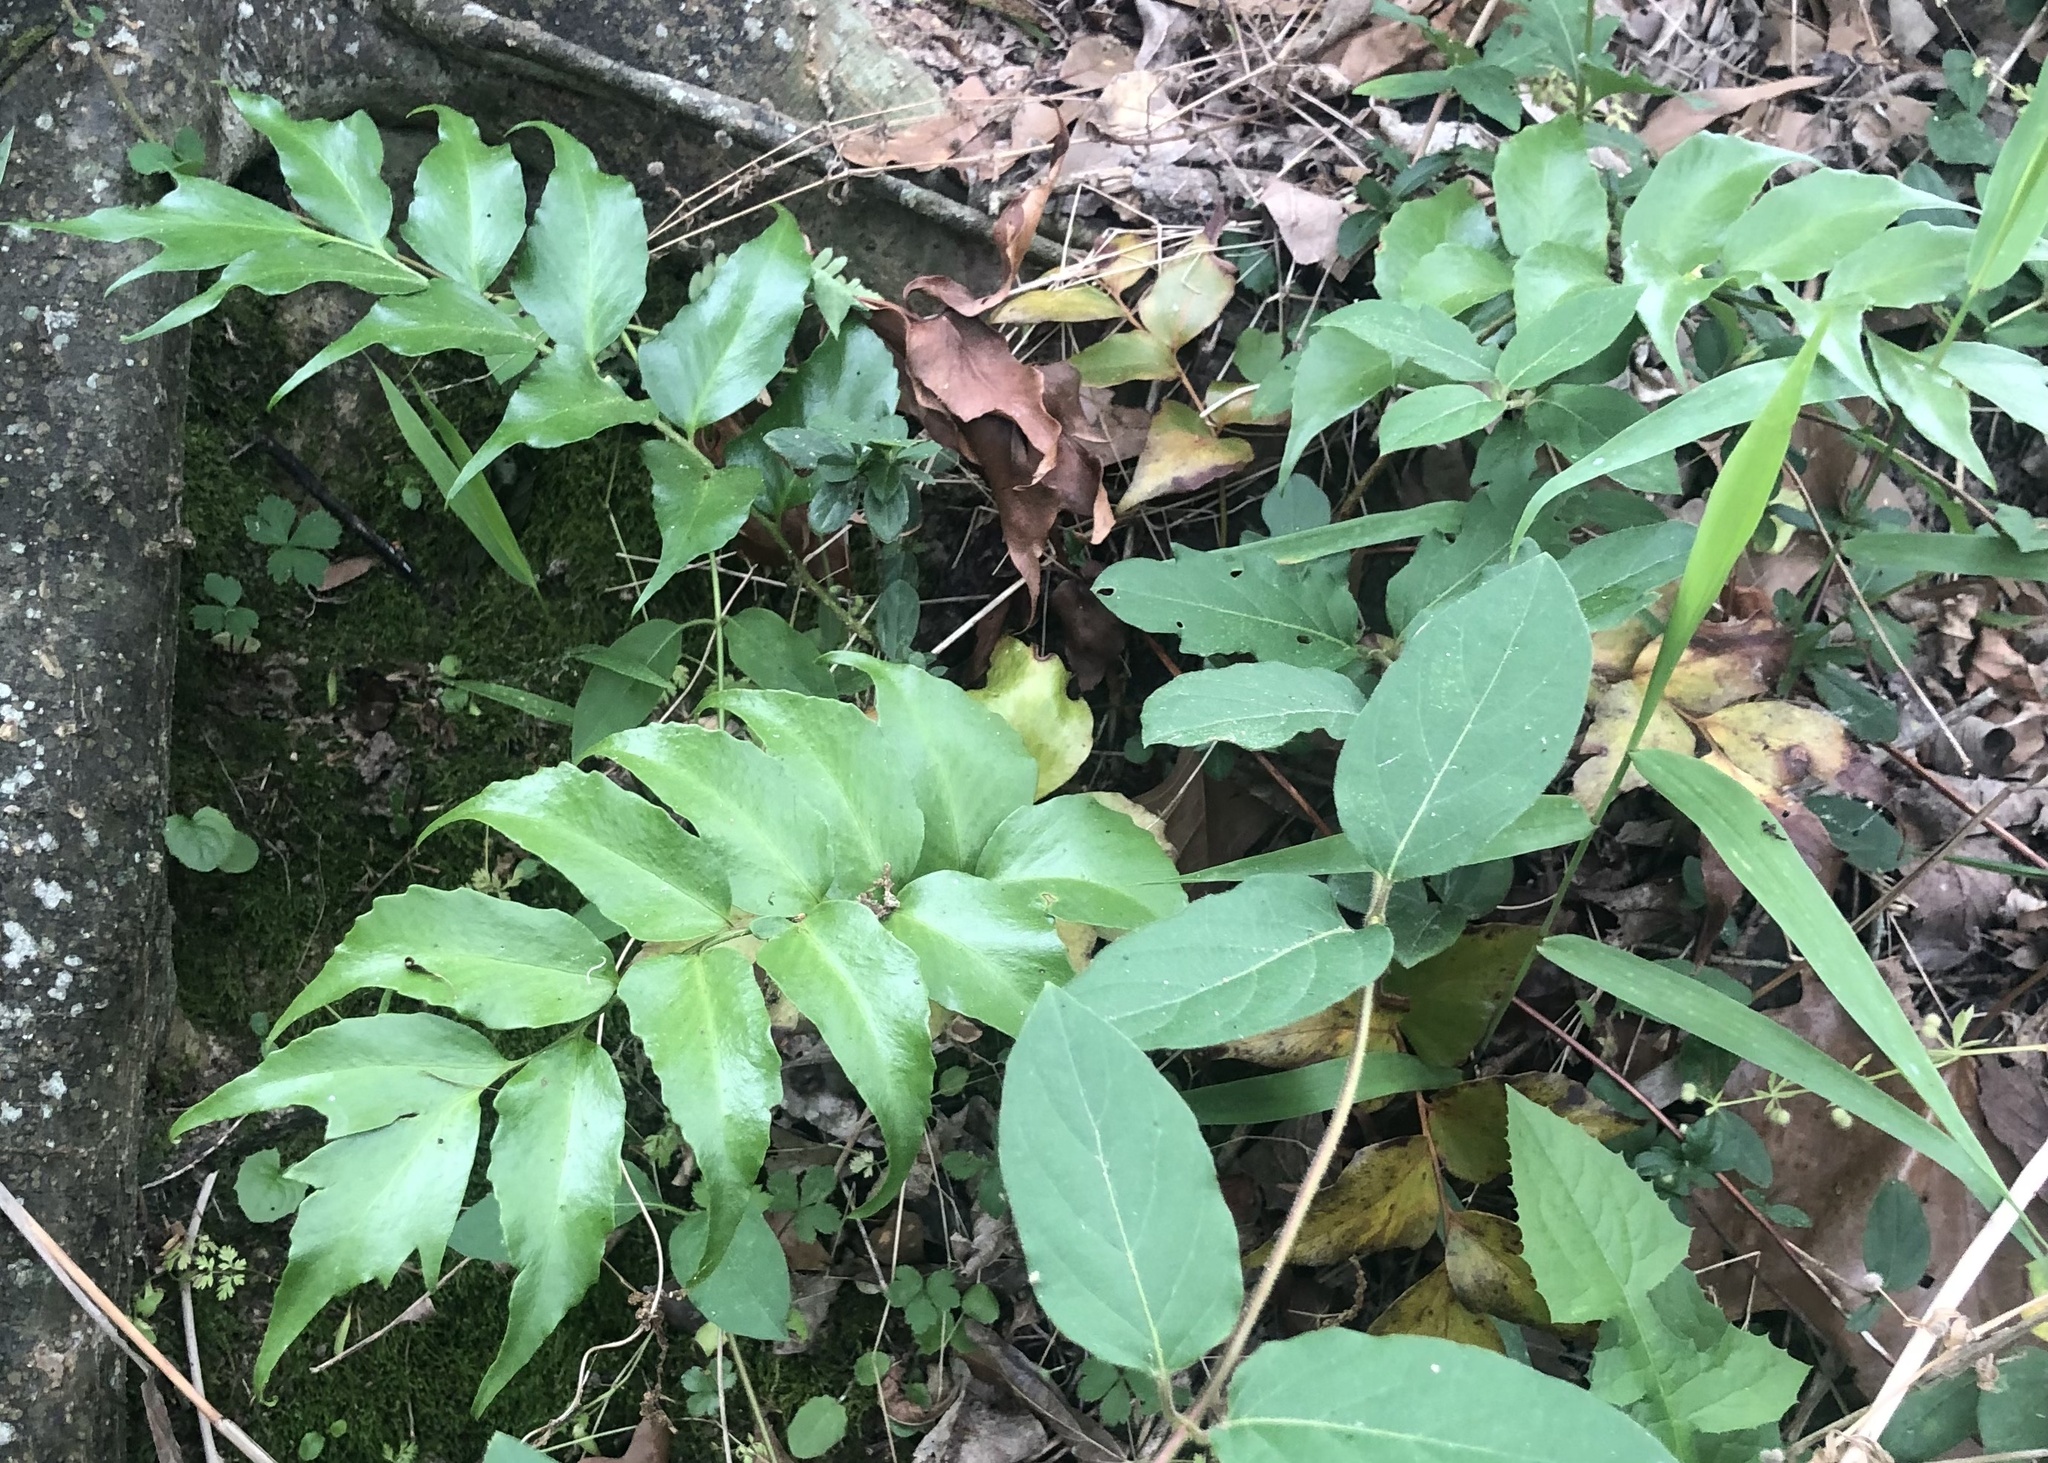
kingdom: Plantae
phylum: Tracheophyta
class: Polypodiopsida
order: Polypodiales
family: Dryopteridaceae
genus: Cyrtomium
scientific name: Cyrtomium falcatum
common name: House holly-fern
